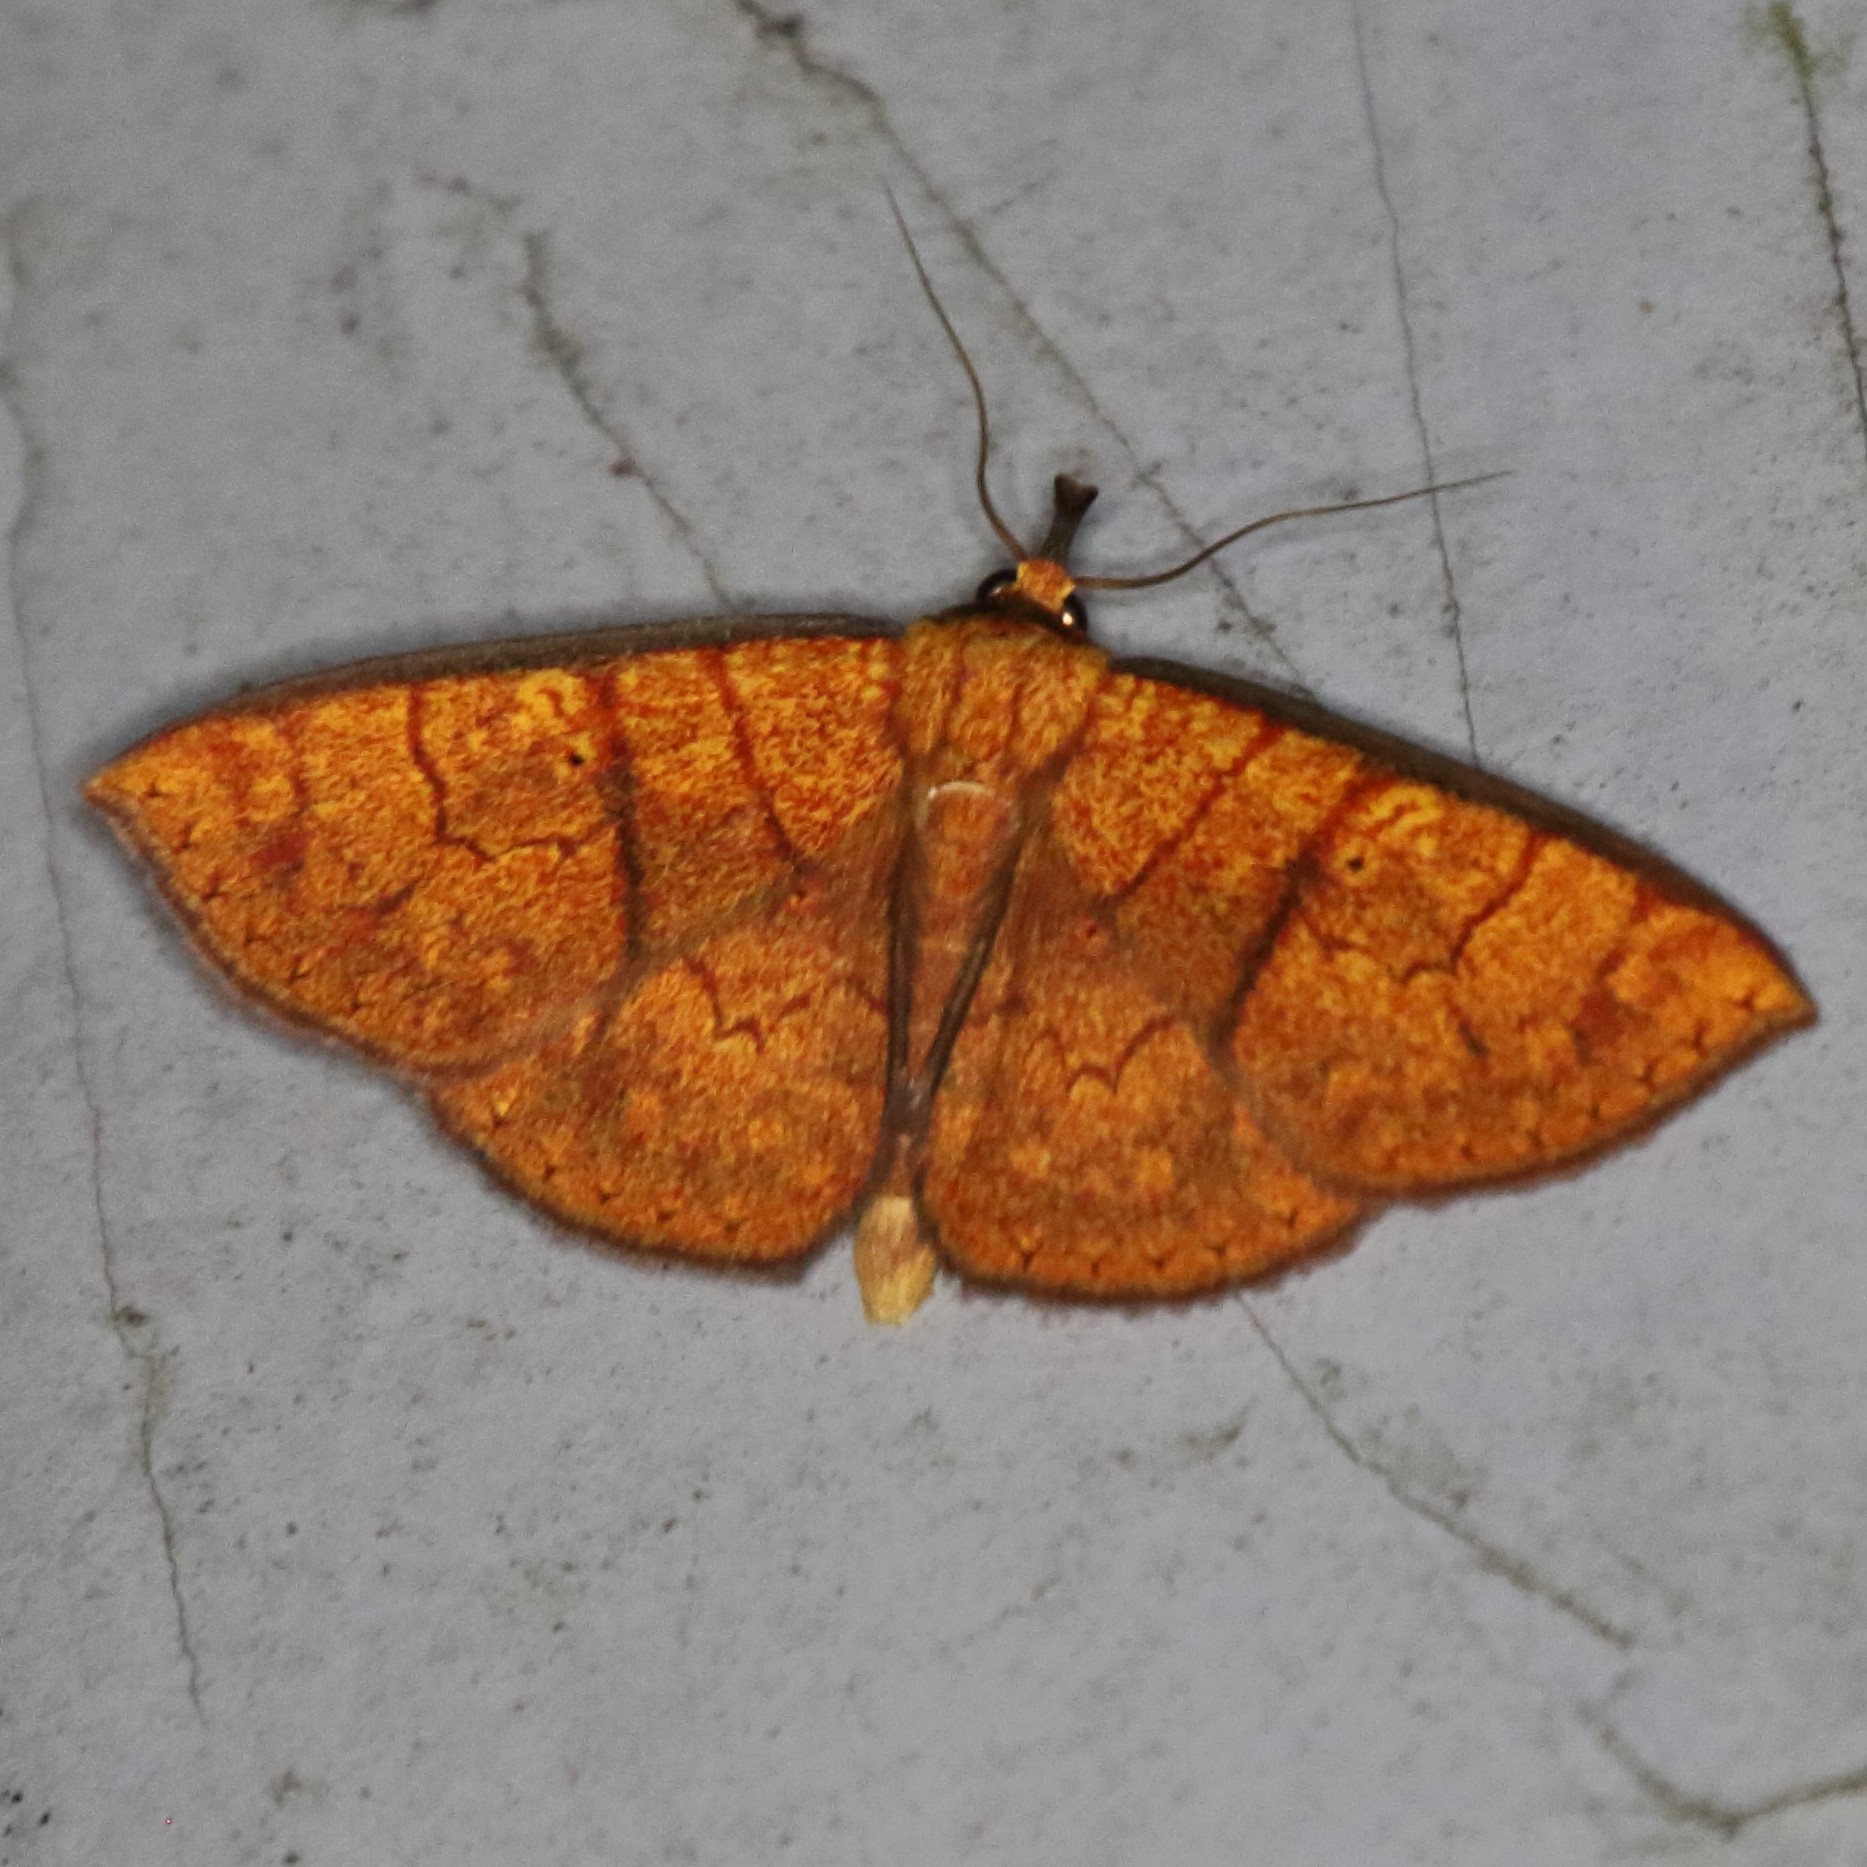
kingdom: Animalia
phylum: Arthropoda
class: Insecta
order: Lepidoptera
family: Erebidae
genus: Singara
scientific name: Singara diversalis
